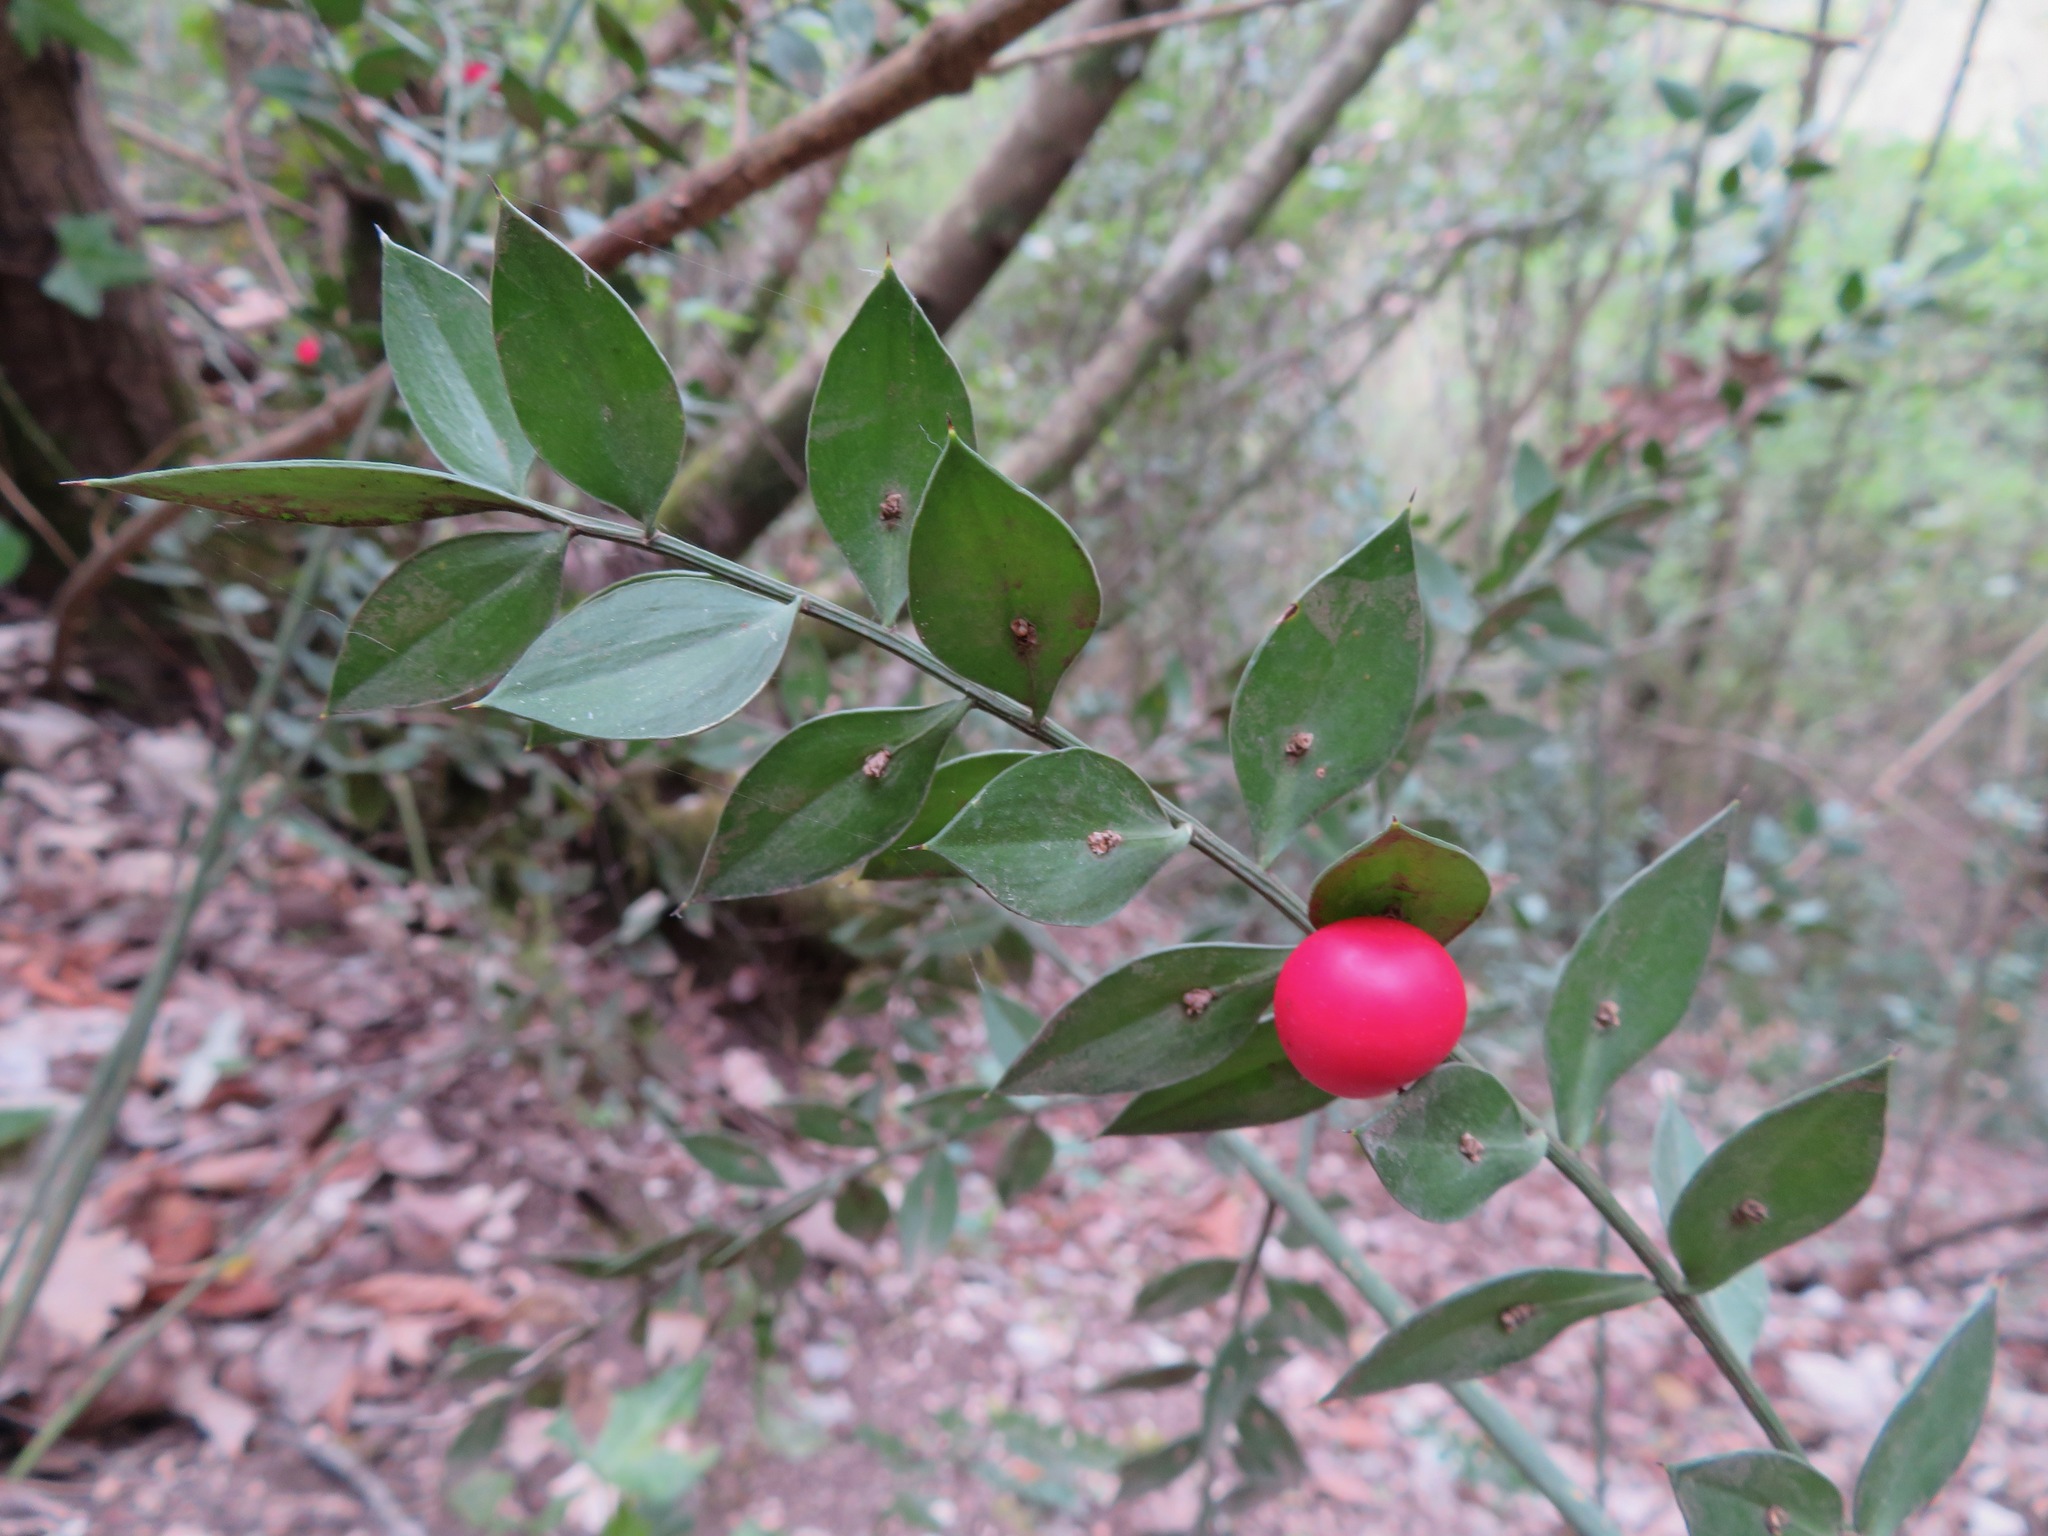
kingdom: Plantae
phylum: Tracheophyta
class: Liliopsida
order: Asparagales
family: Asparagaceae
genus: Ruscus
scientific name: Ruscus aculeatus
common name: Butcher's-broom
